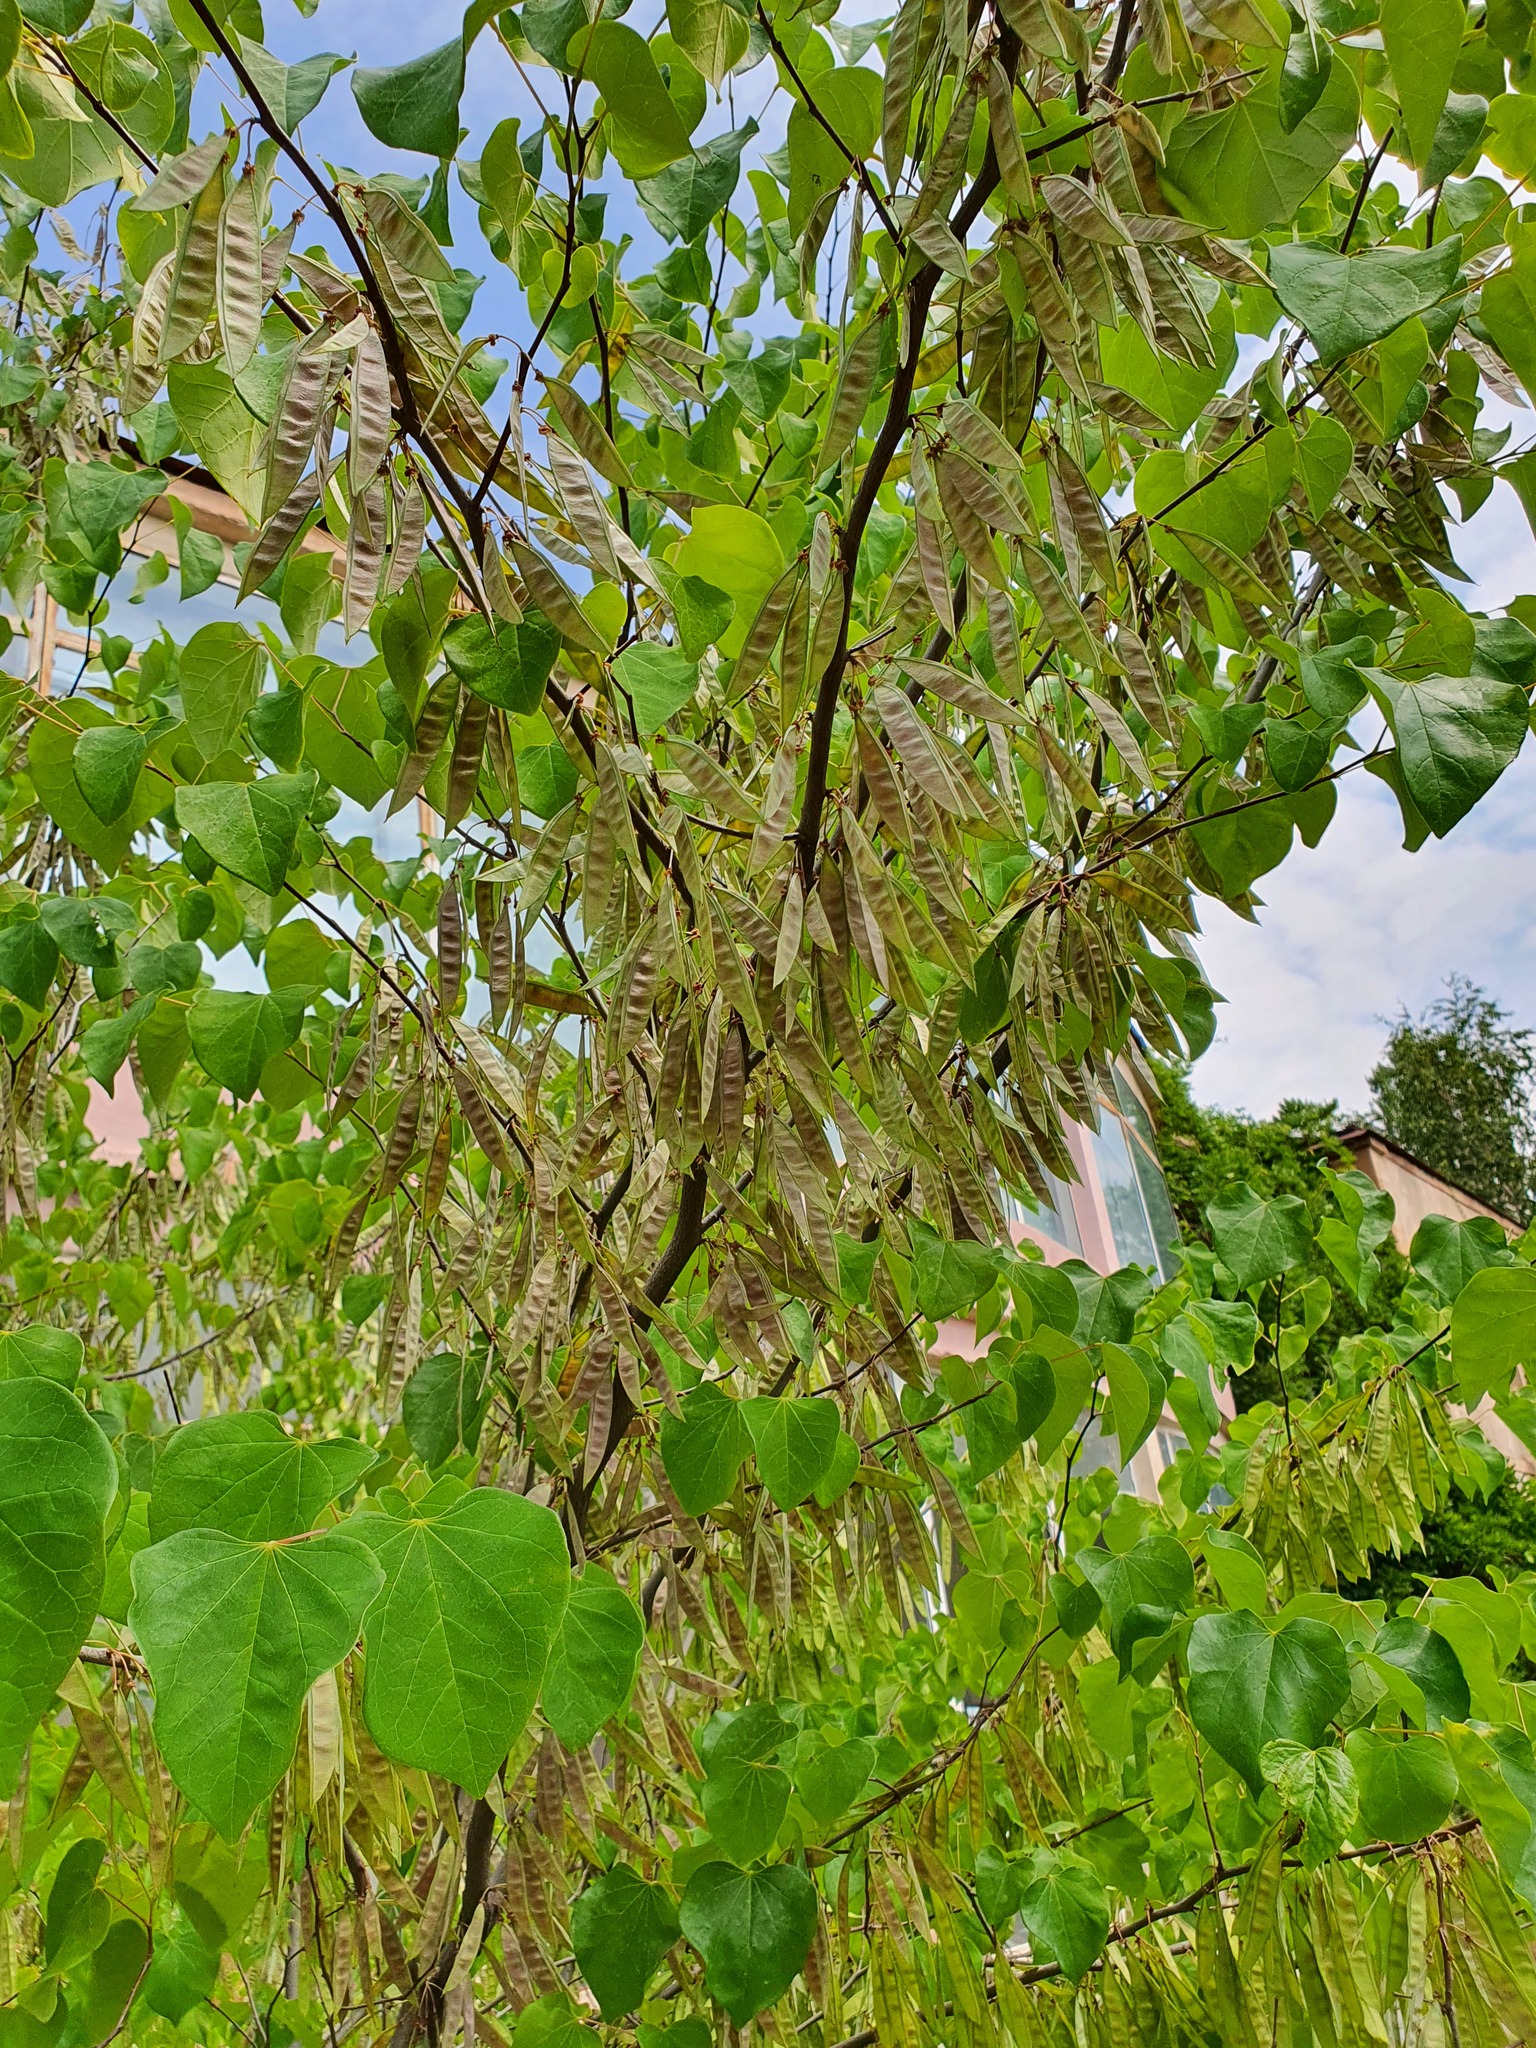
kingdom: Plantae
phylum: Tracheophyta
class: Magnoliopsida
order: Fabales
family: Fabaceae
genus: Cercis
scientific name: Cercis siliquastrum
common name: Judas tree
